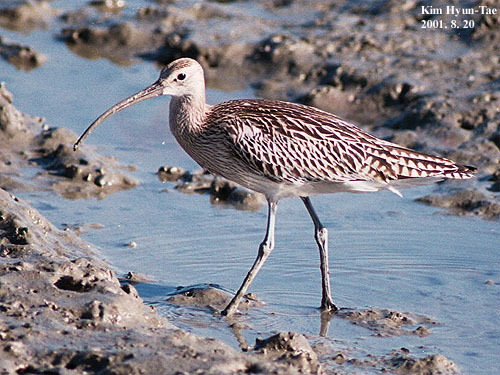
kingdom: Animalia
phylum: Chordata
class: Aves
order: Charadriiformes
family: Scolopacidae
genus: Numenius
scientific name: Numenius arquata
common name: Eurasian curlew
